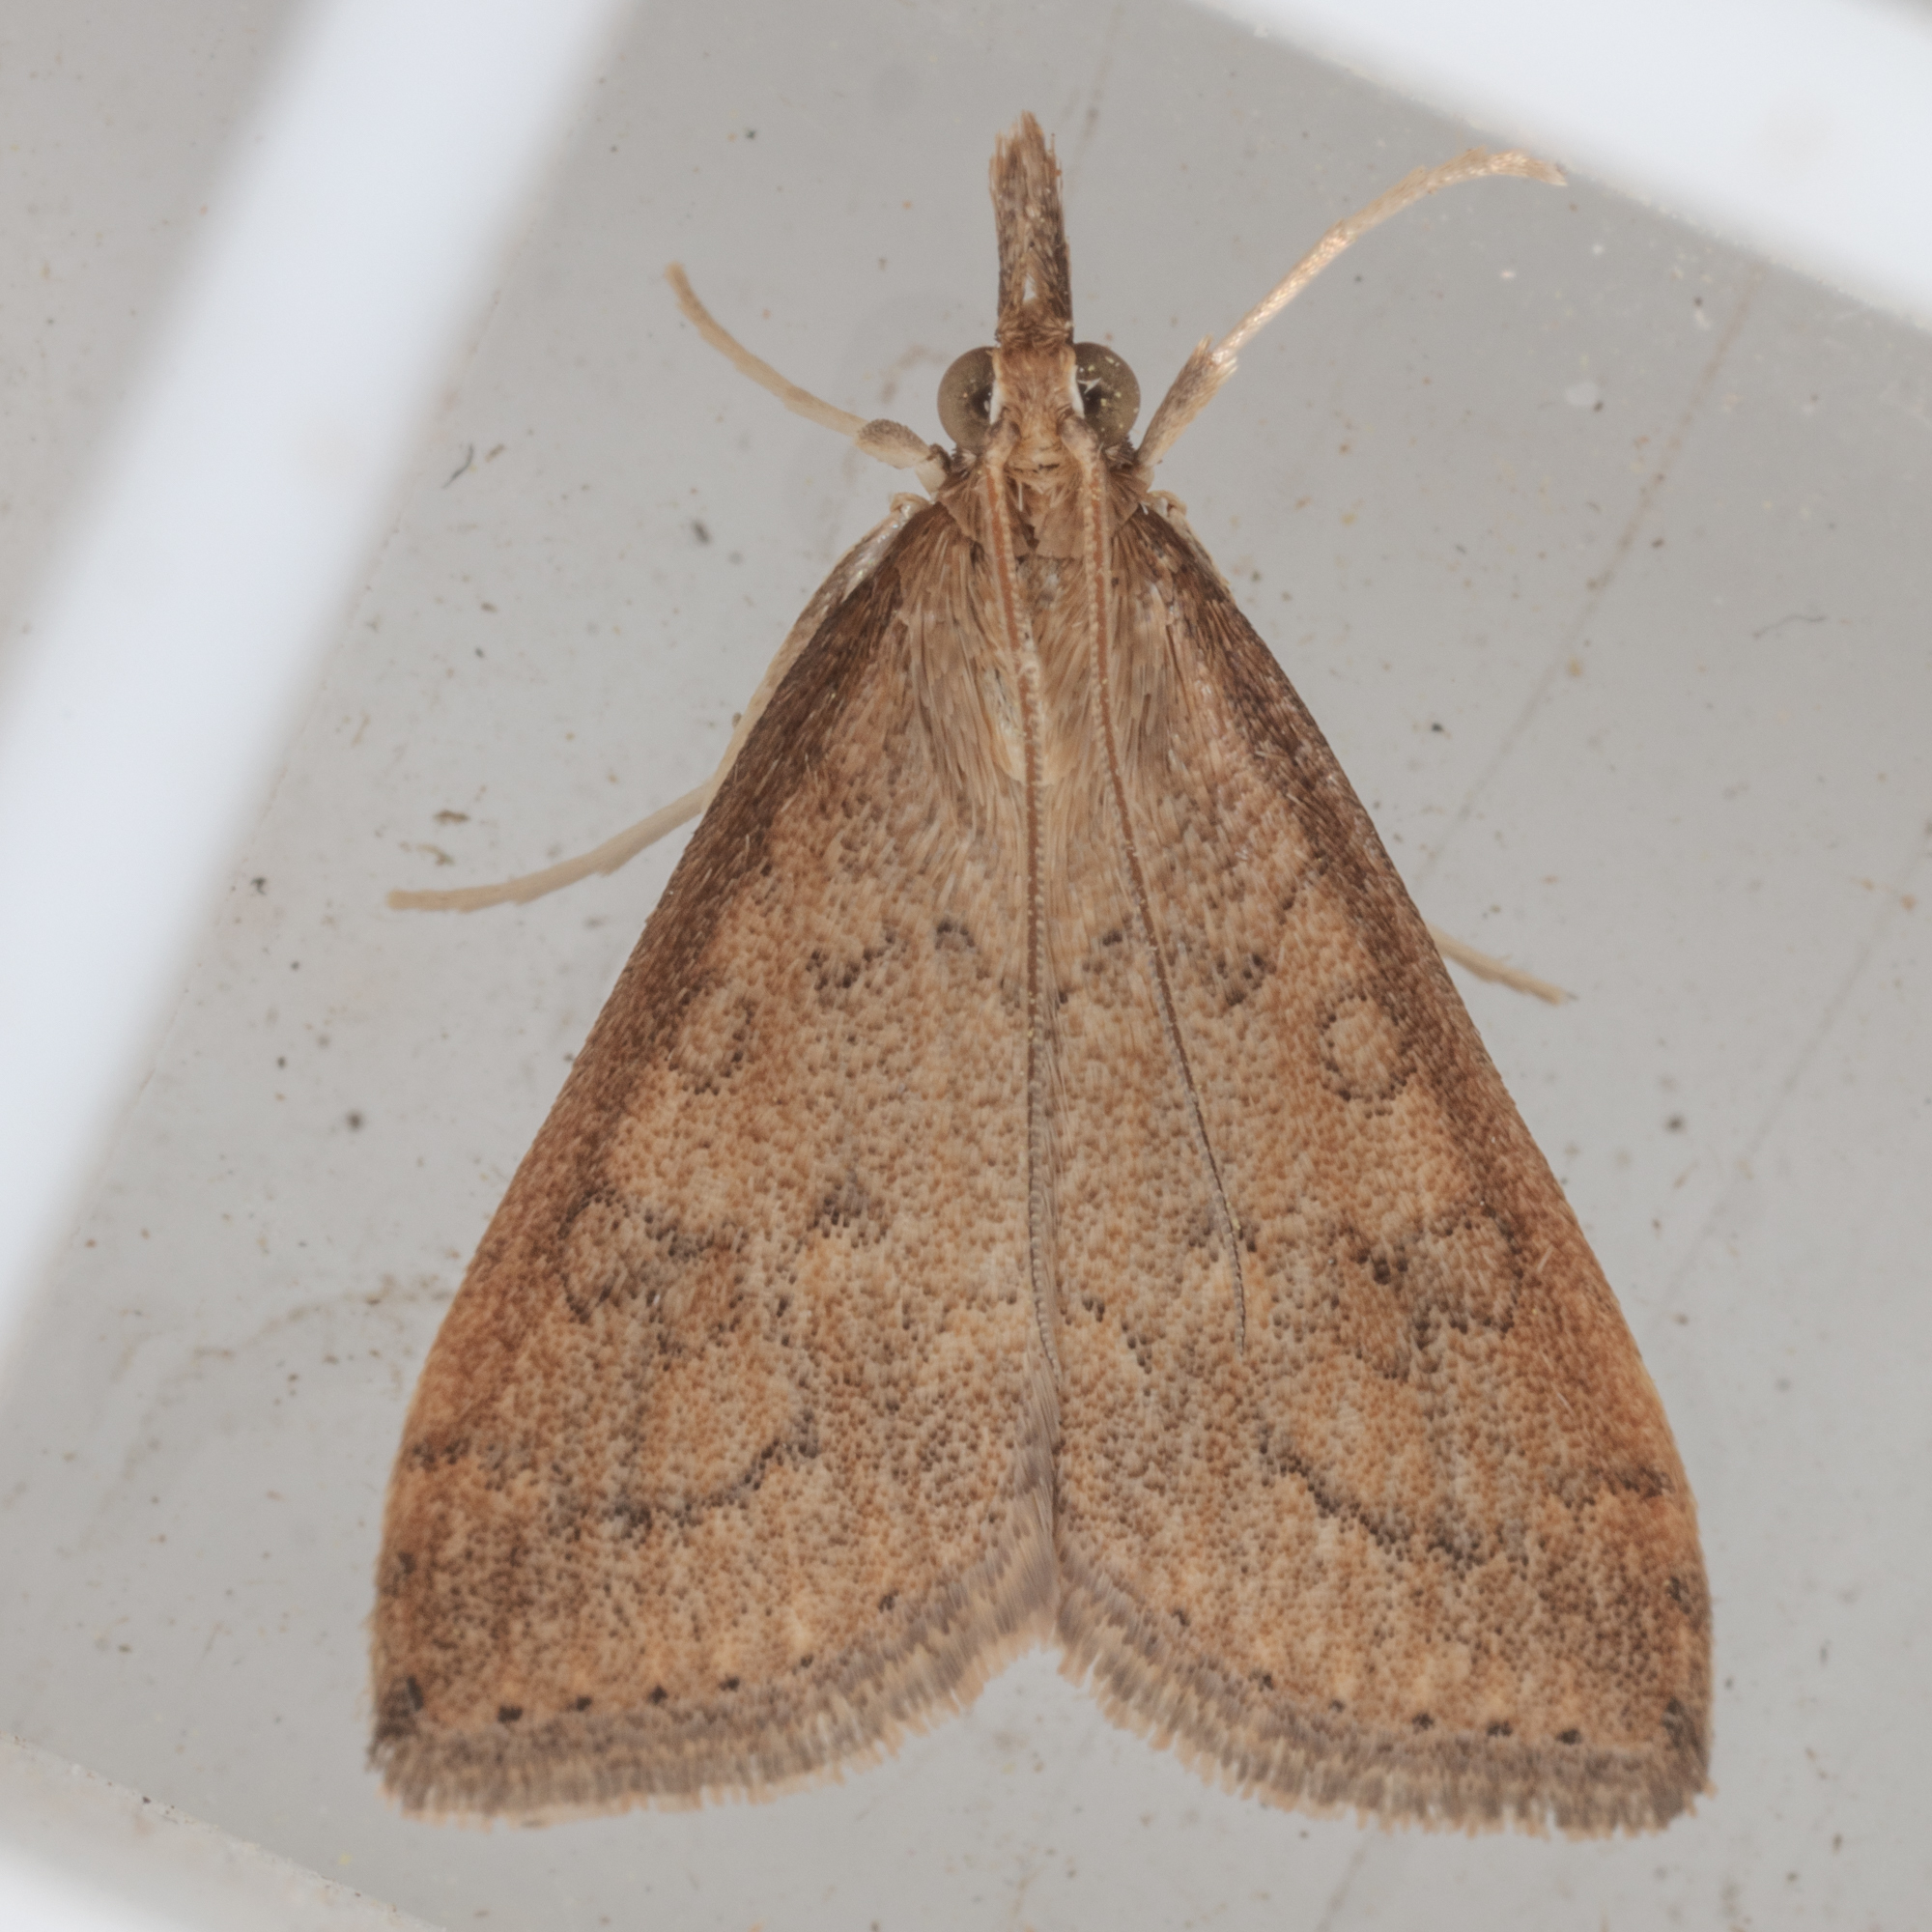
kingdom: Animalia
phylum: Arthropoda
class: Insecta
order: Lepidoptera
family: Crambidae
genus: Udea
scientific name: Udea rubigalis
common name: Celery leaftier moth
